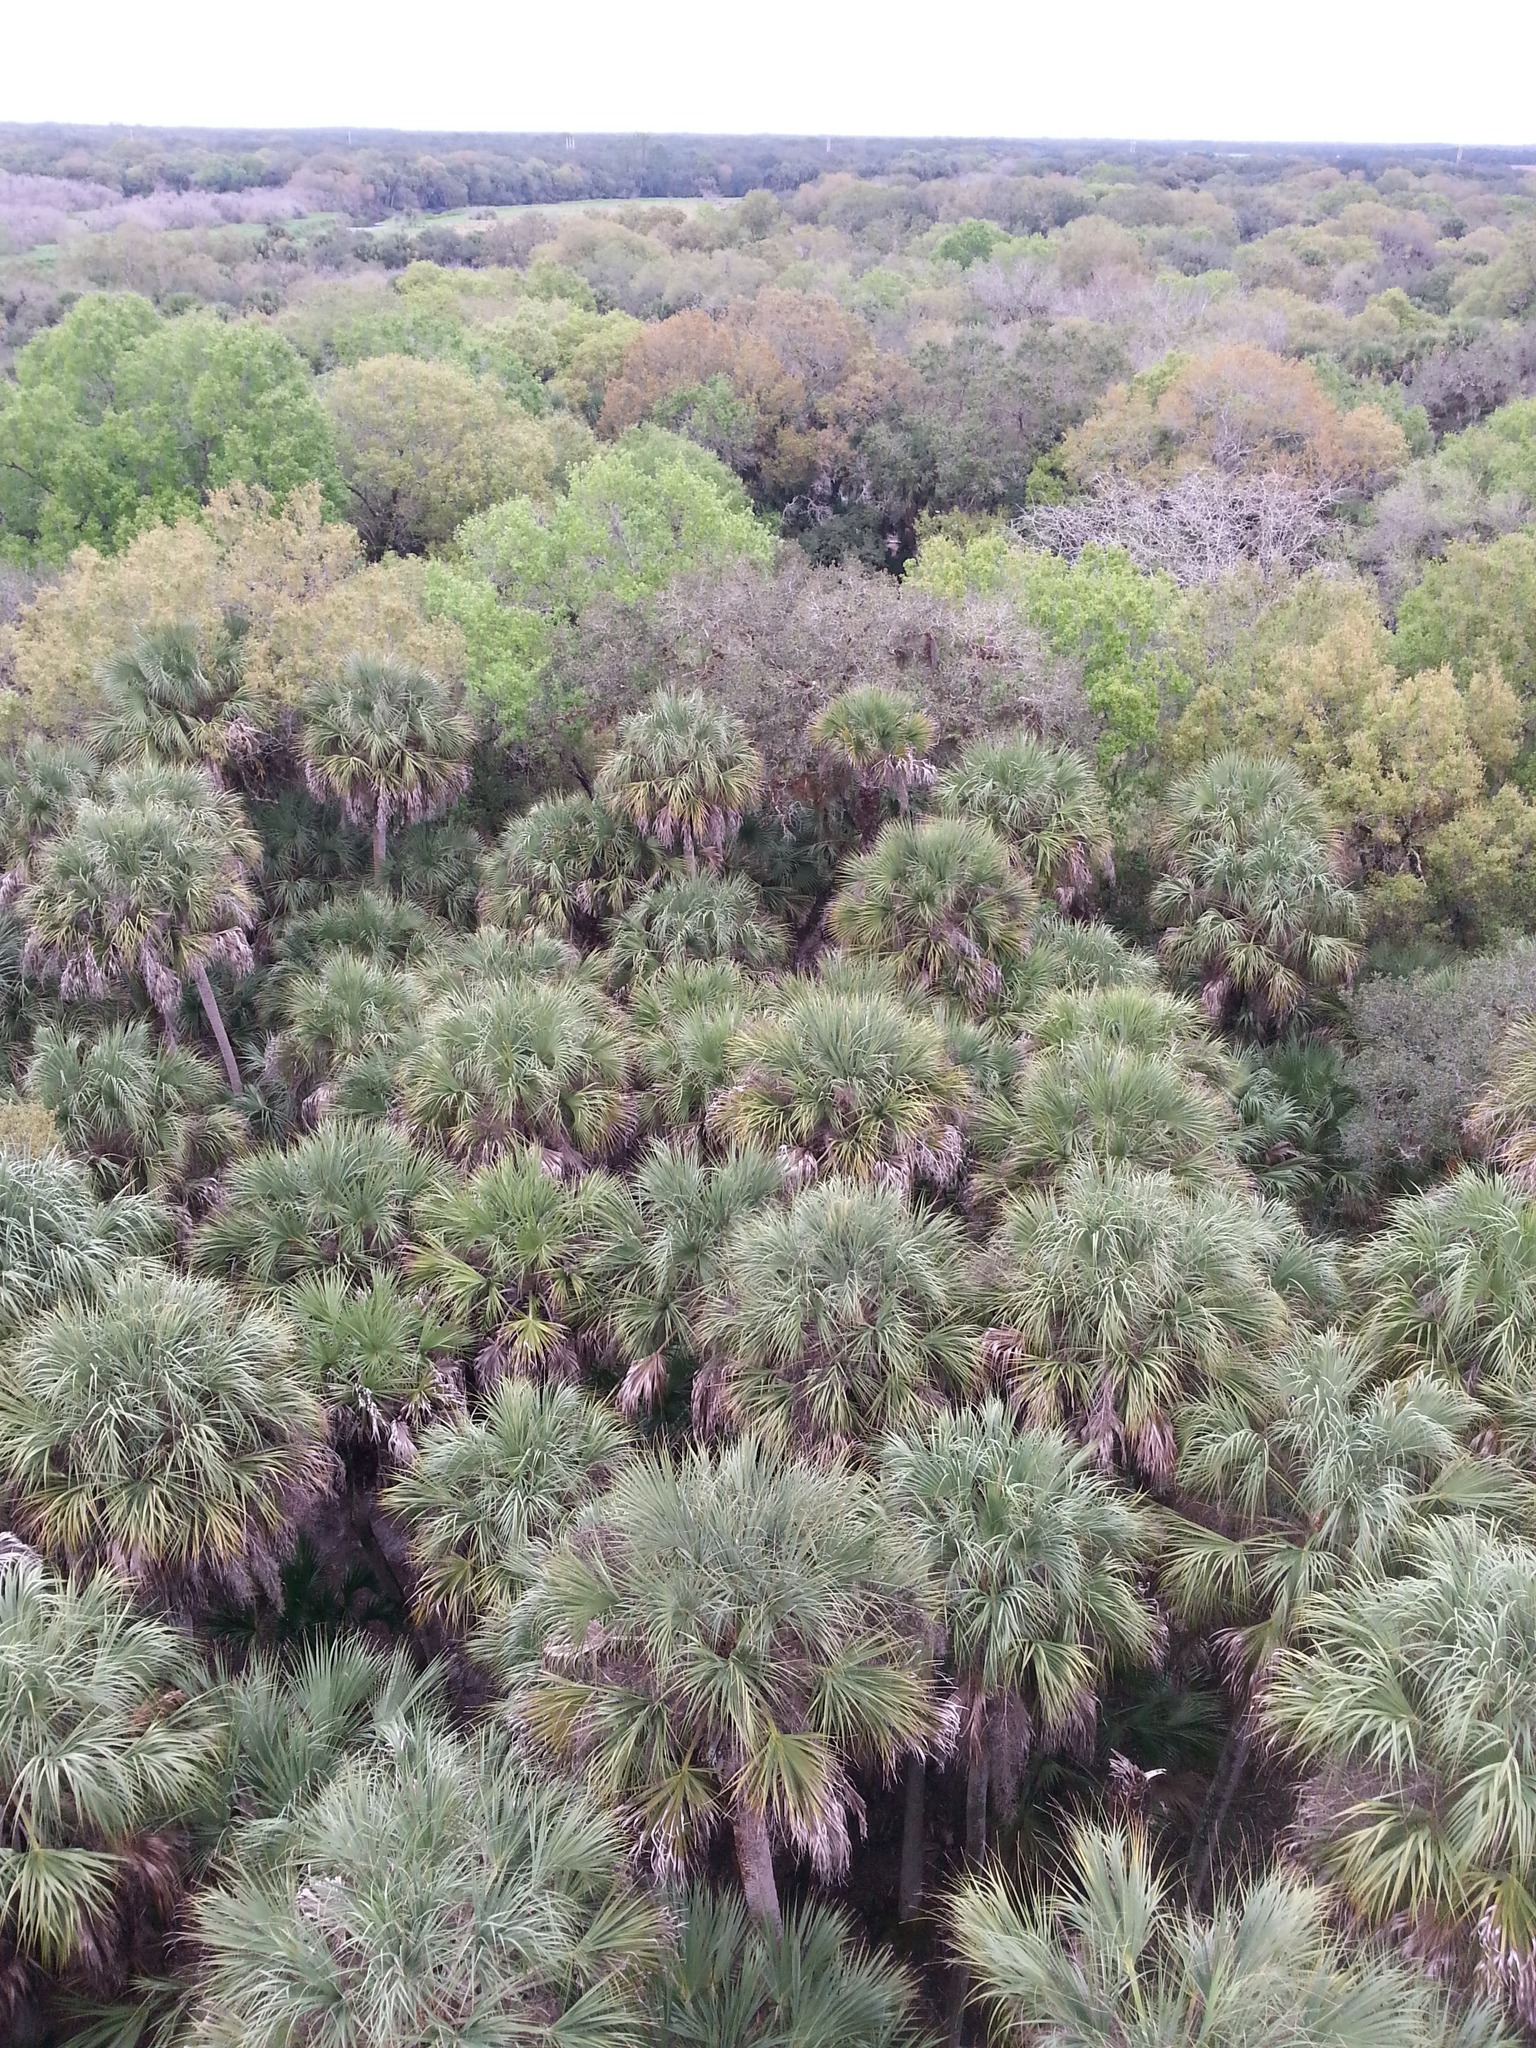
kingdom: Plantae
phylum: Tracheophyta
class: Liliopsida
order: Arecales
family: Arecaceae
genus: Sabal
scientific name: Sabal palmetto
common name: Blue palmetto
